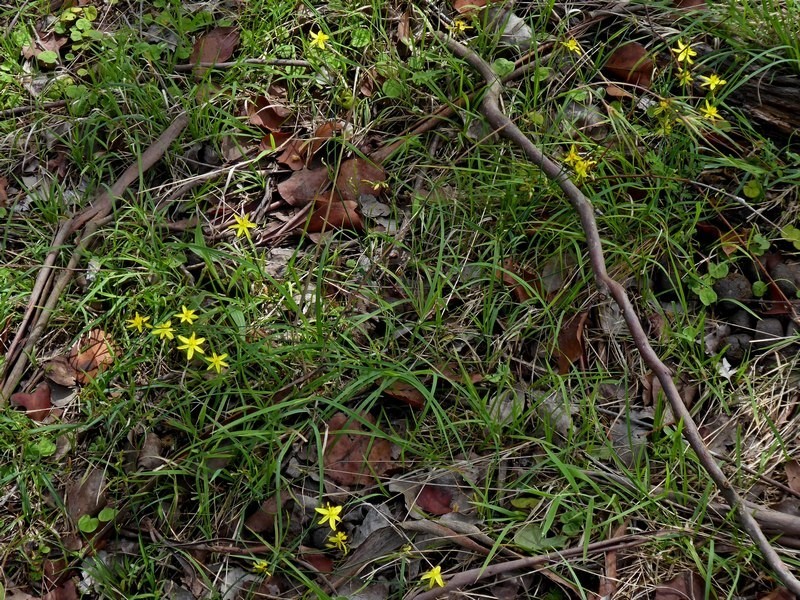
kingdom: Plantae
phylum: Tracheophyta
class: Liliopsida
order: Asparagales
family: Asphodelaceae
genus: Tricoryne
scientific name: Tricoryne elatior
